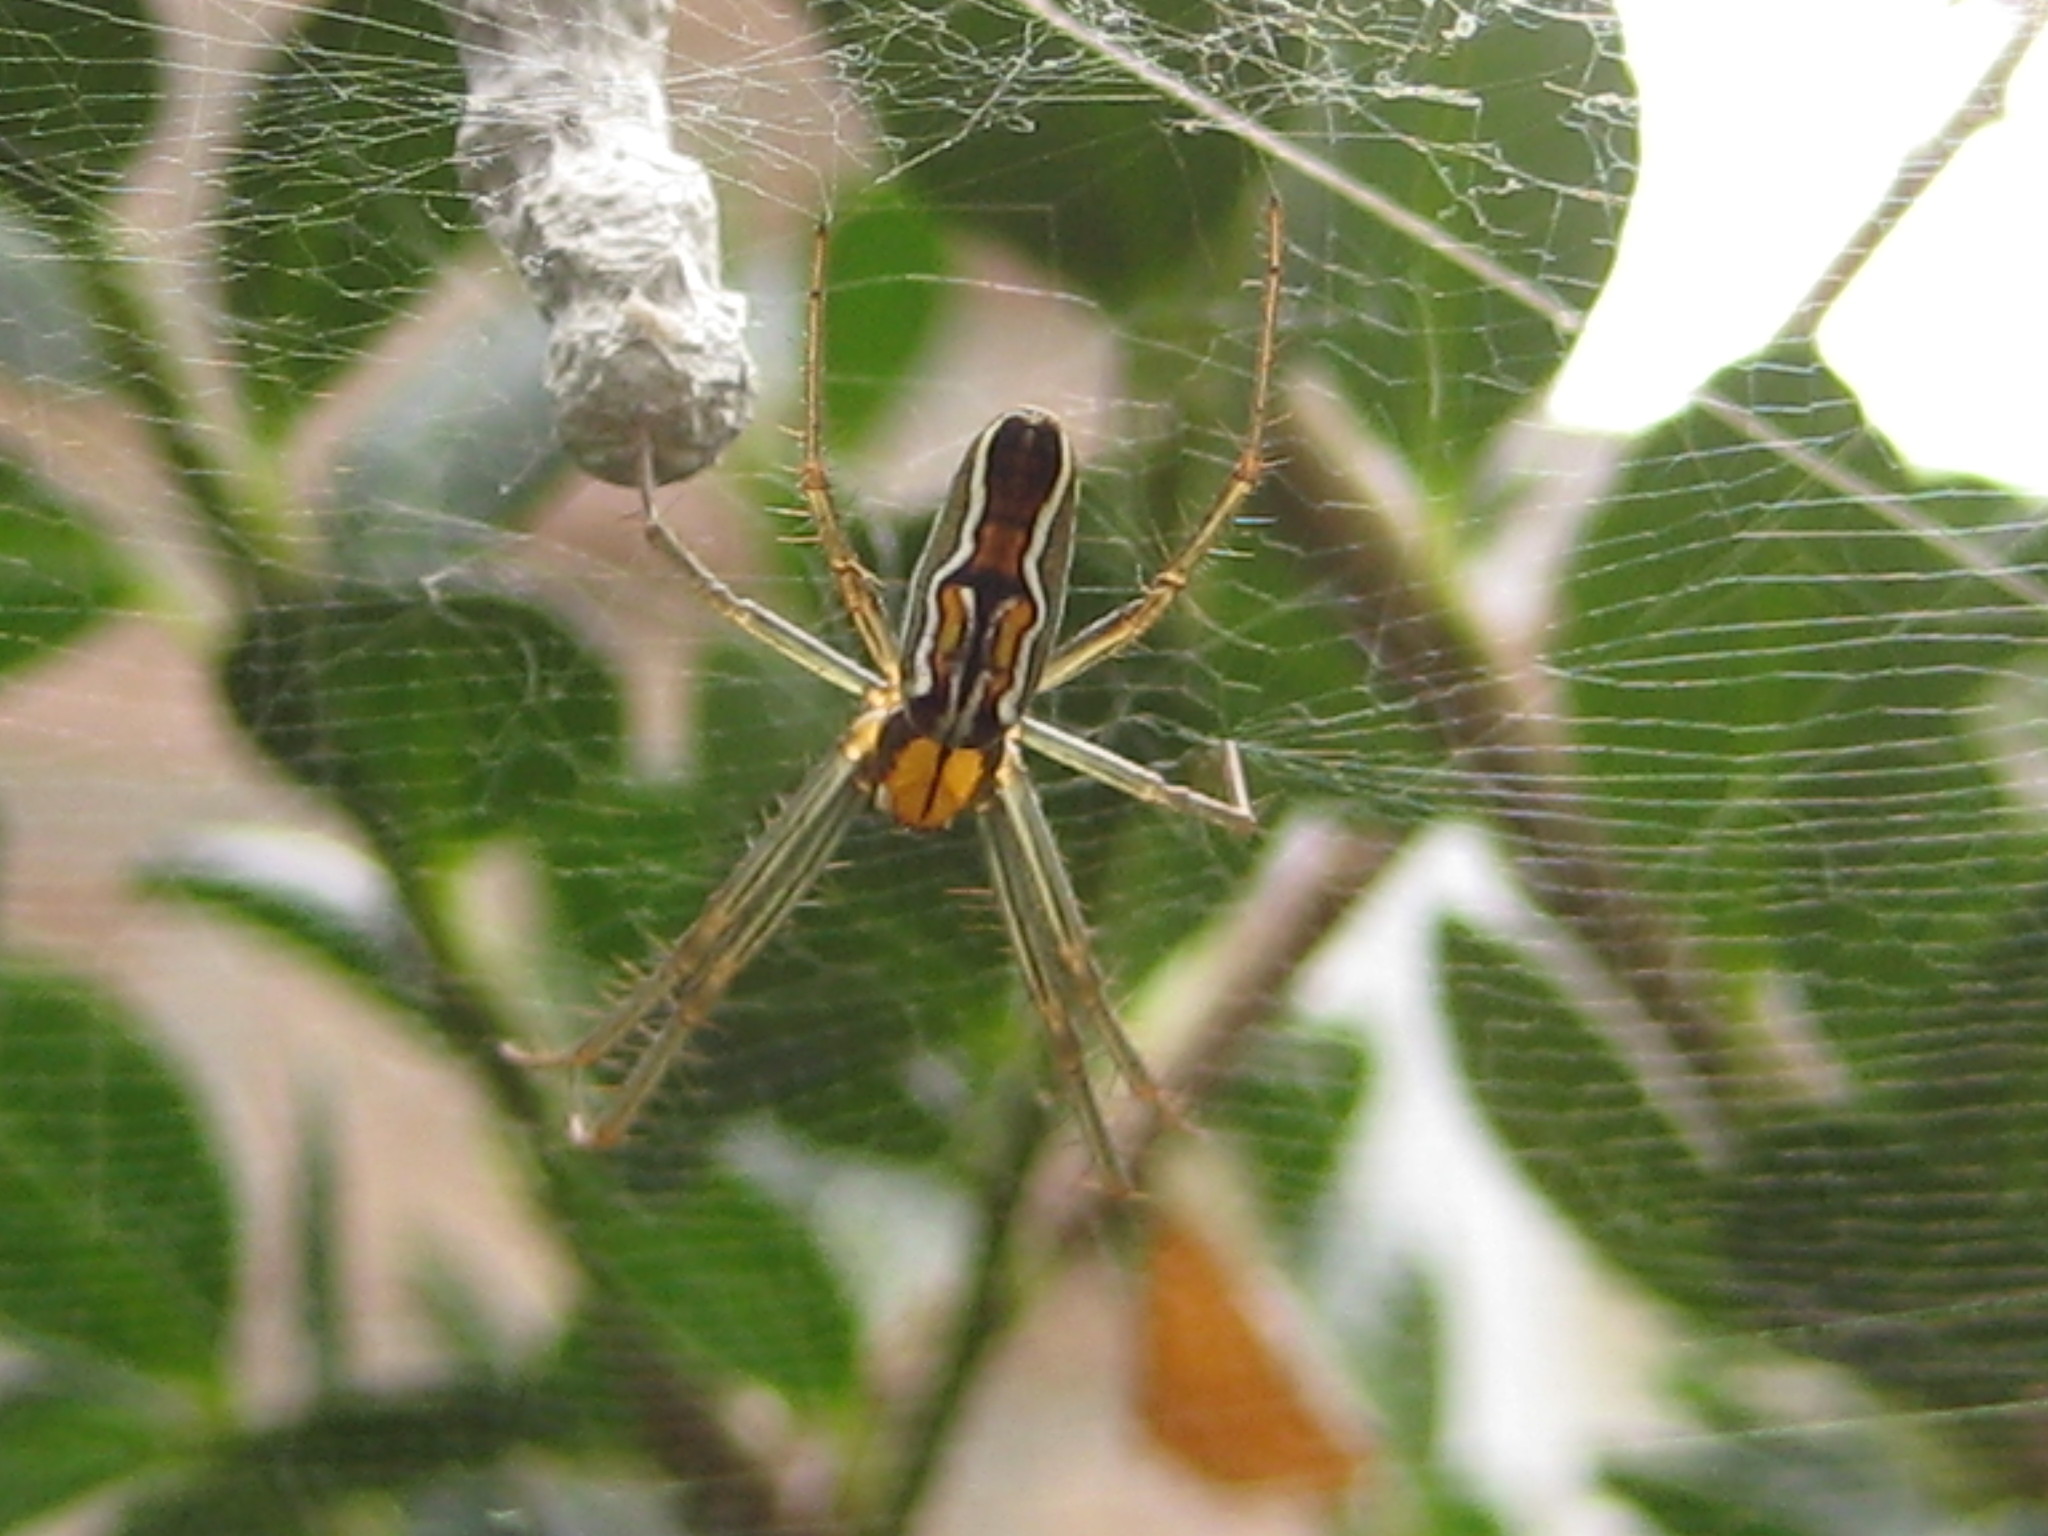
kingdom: Animalia
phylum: Arthropoda
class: Arachnida
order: Araneae
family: Araneidae
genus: Mecynogea
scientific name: Mecynogea lemniscata
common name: Orb weavers
